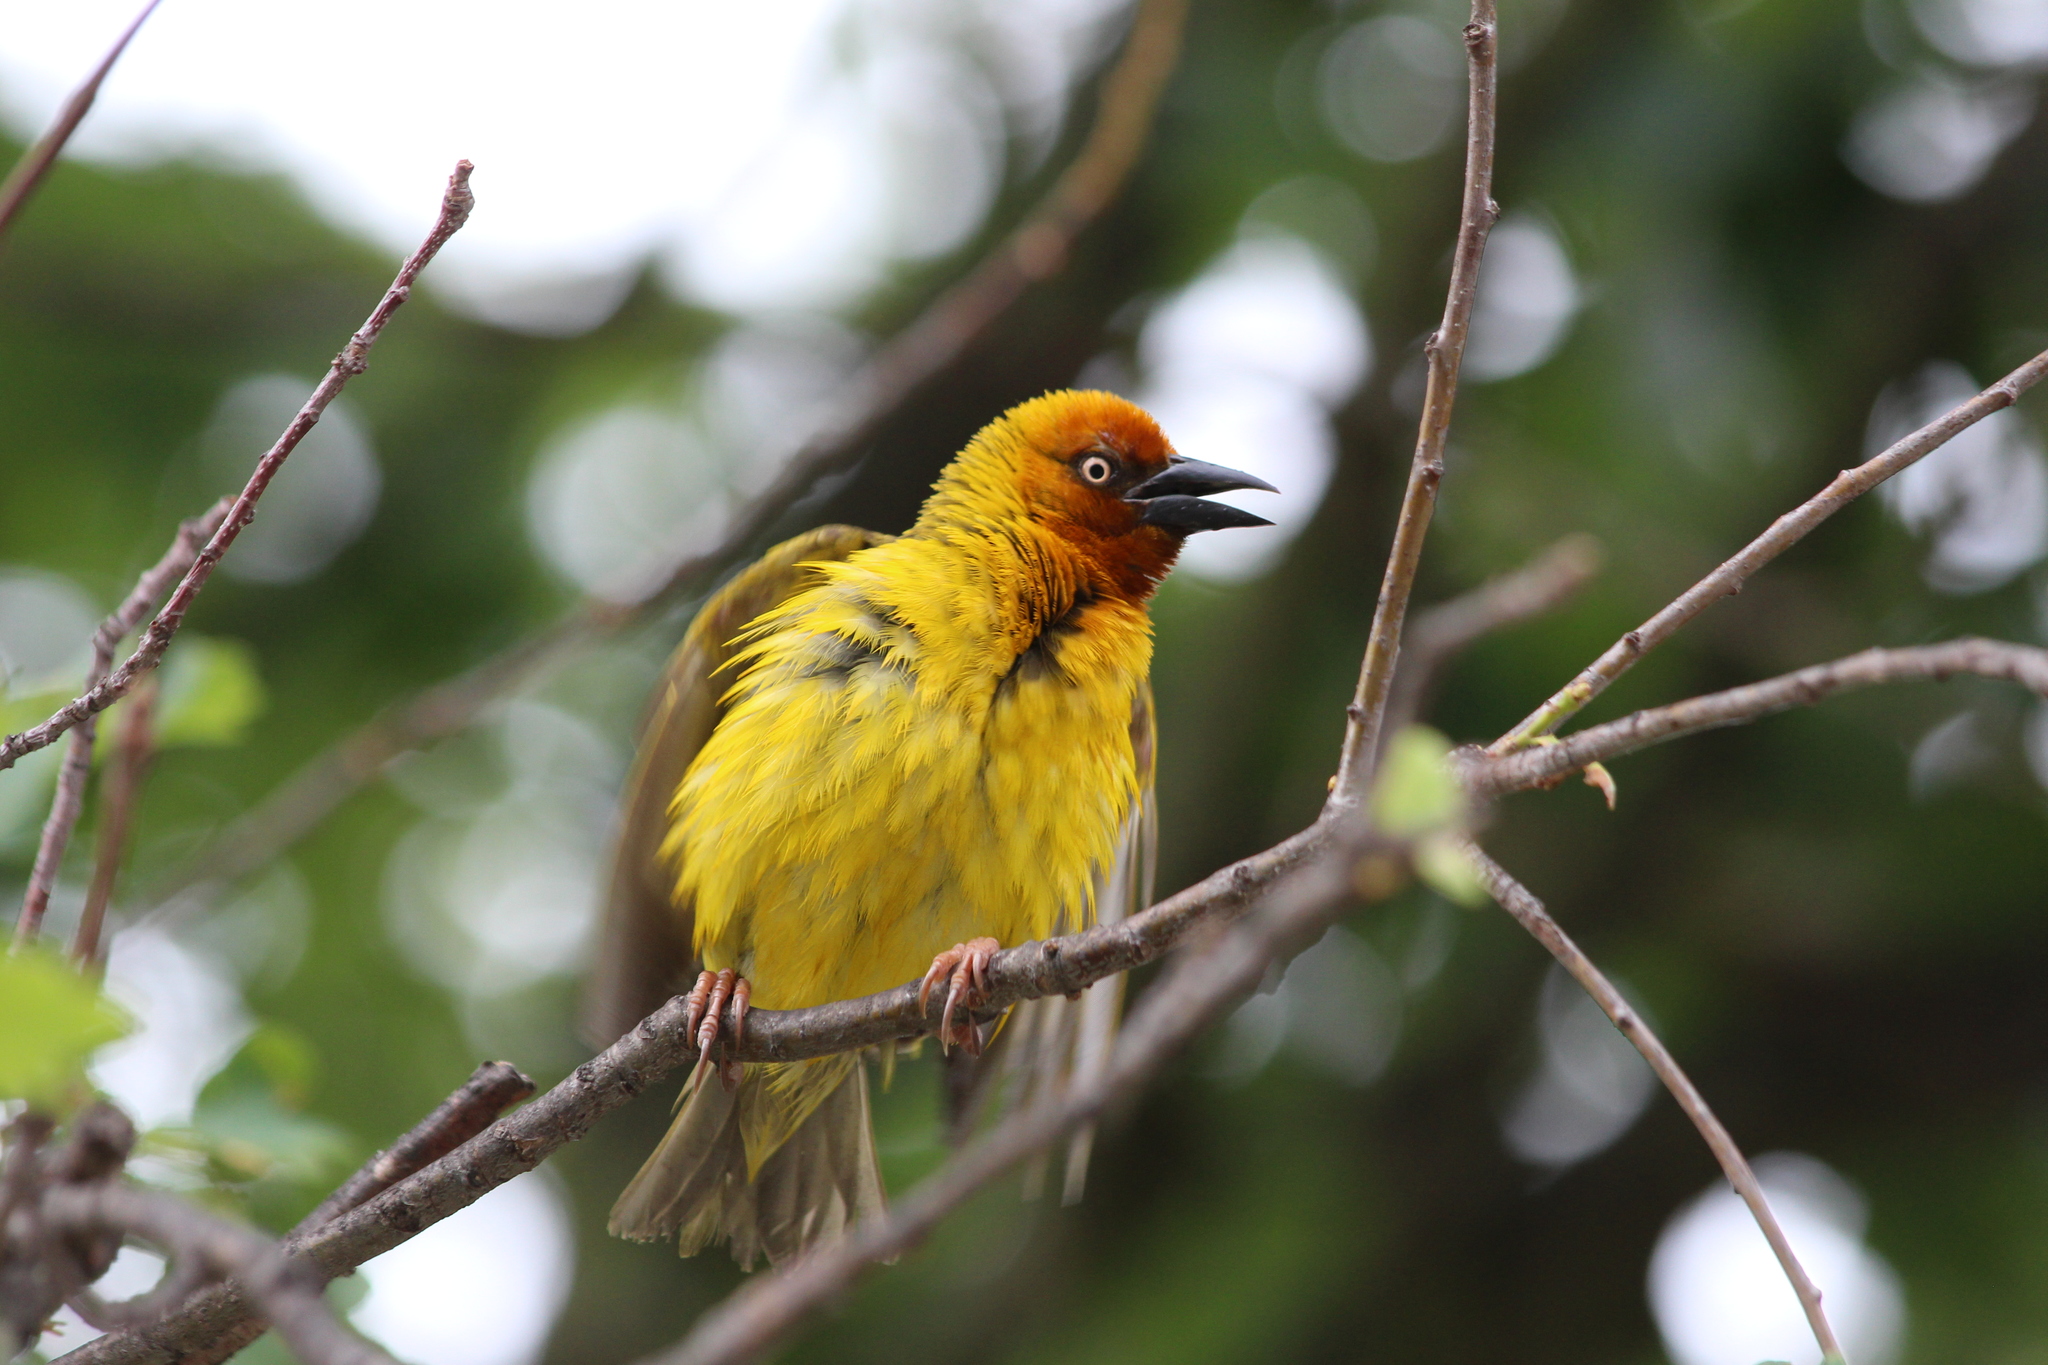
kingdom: Animalia
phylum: Chordata
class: Aves
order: Passeriformes
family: Ploceidae
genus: Ploceus
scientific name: Ploceus capensis
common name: Cape weaver
